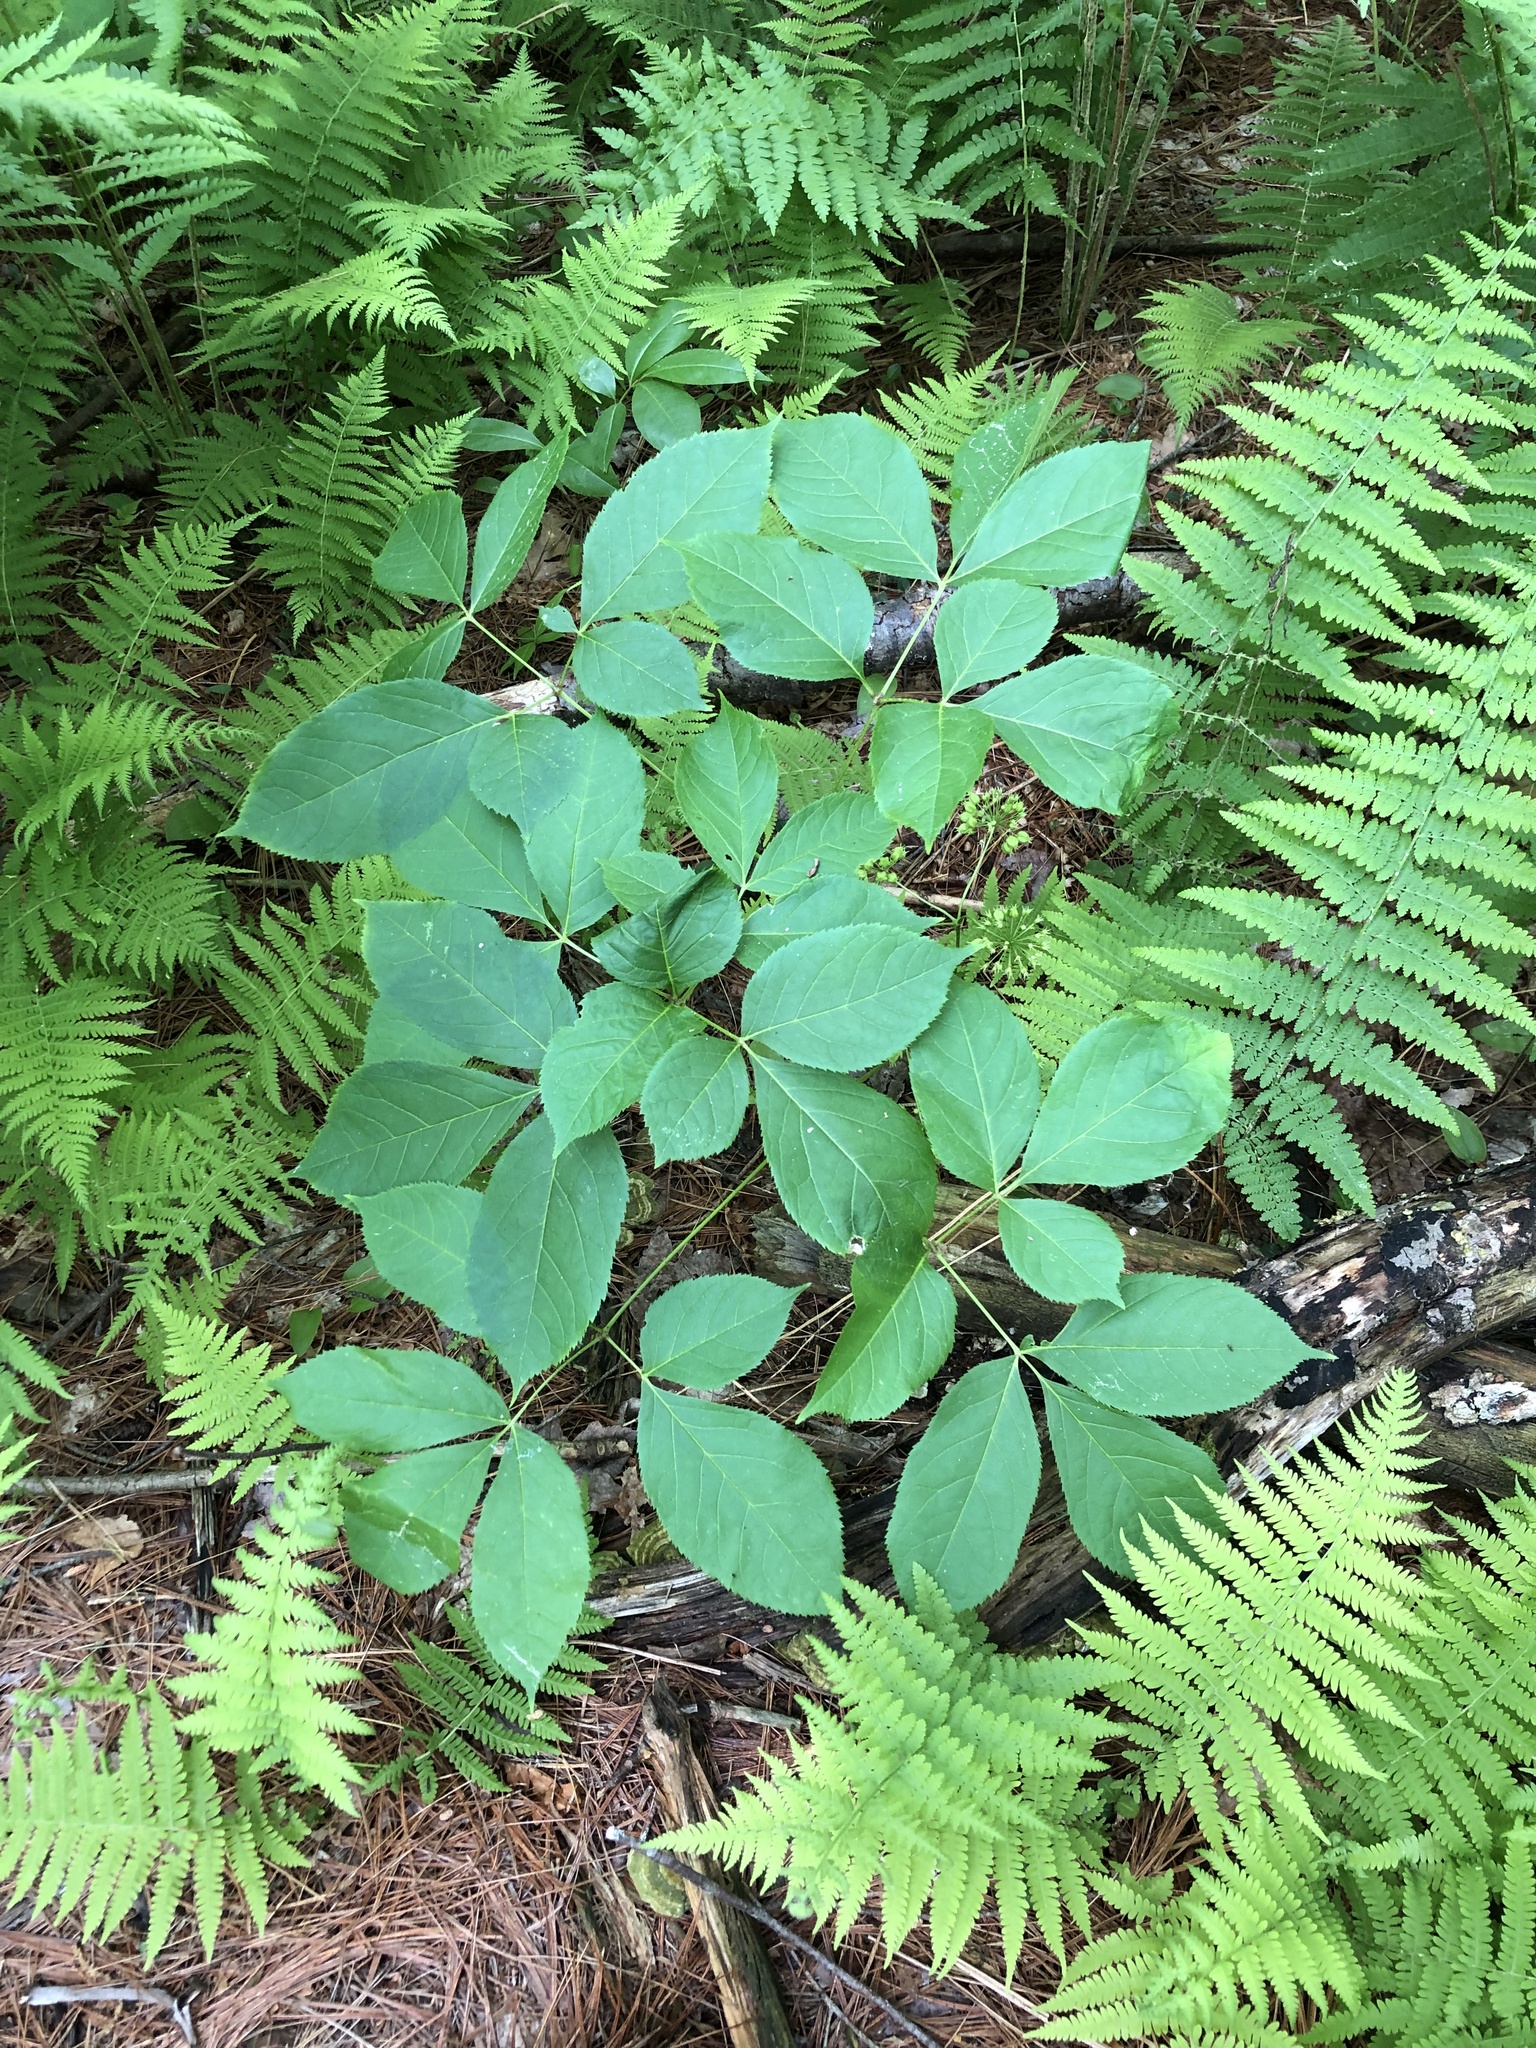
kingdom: Plantae
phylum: Tracheophyta
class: Magnoliopsida
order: Apiales
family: Araliaceae
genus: Aralia
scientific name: Aralia nudicaulis
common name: Wild sarsaparilla
